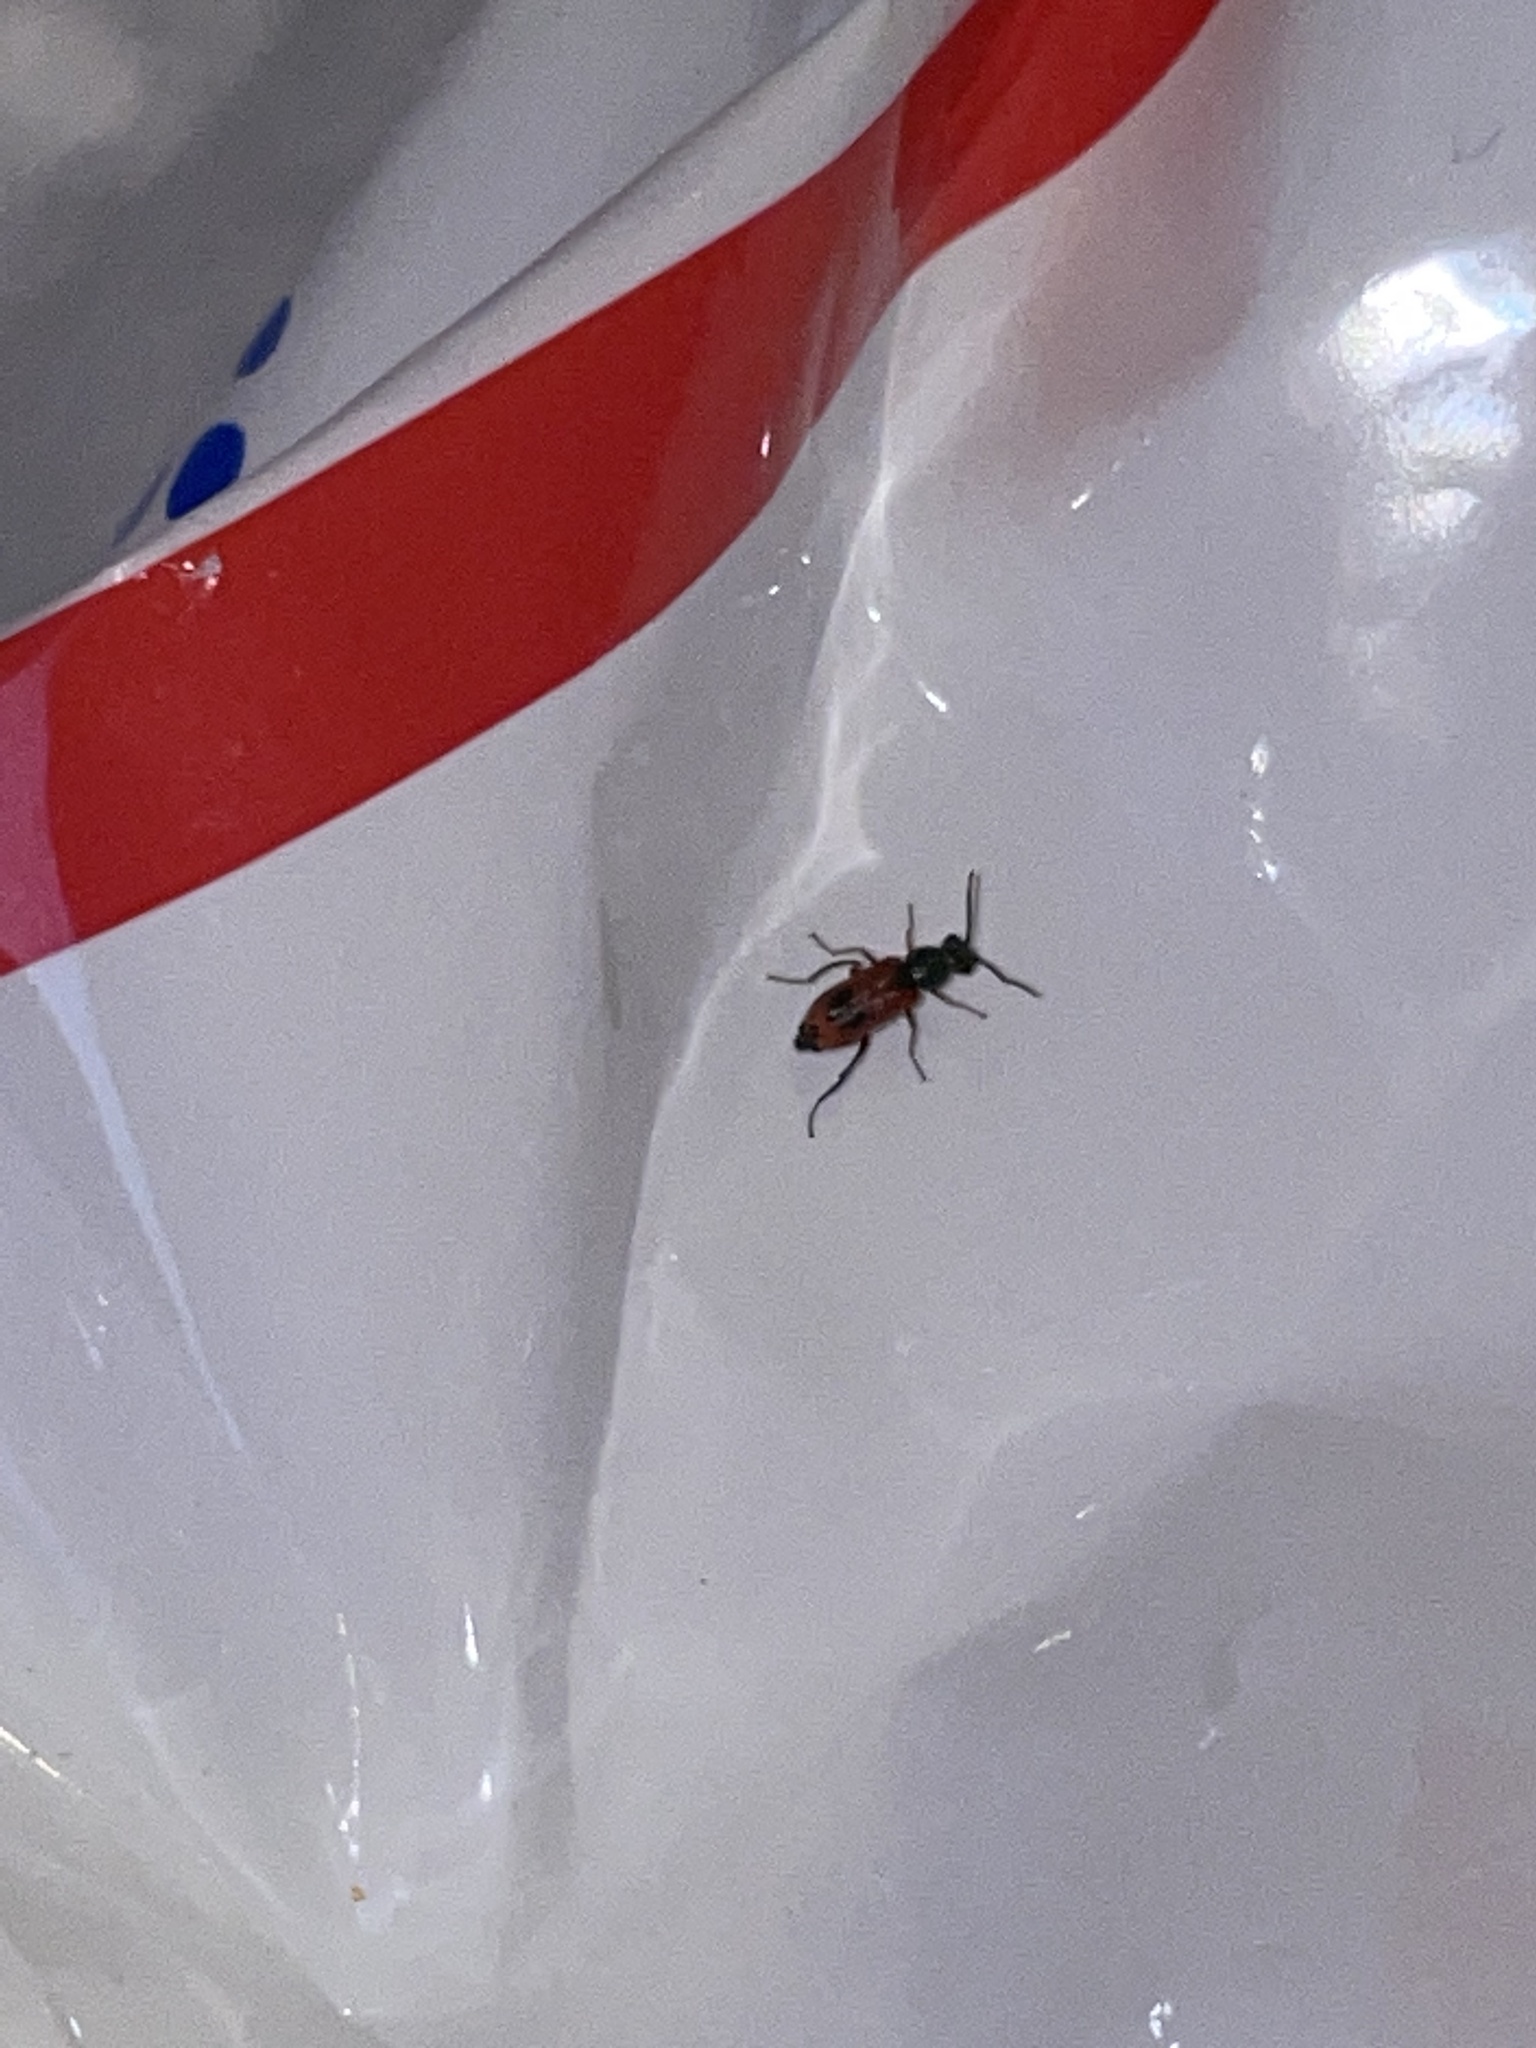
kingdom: Animalia
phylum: Arthropoda
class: Insecta
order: Coleoptera
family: Melyridae
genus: Anthocomus
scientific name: Anthocomus equestris
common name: Black-banded soft-winged flower beetle
